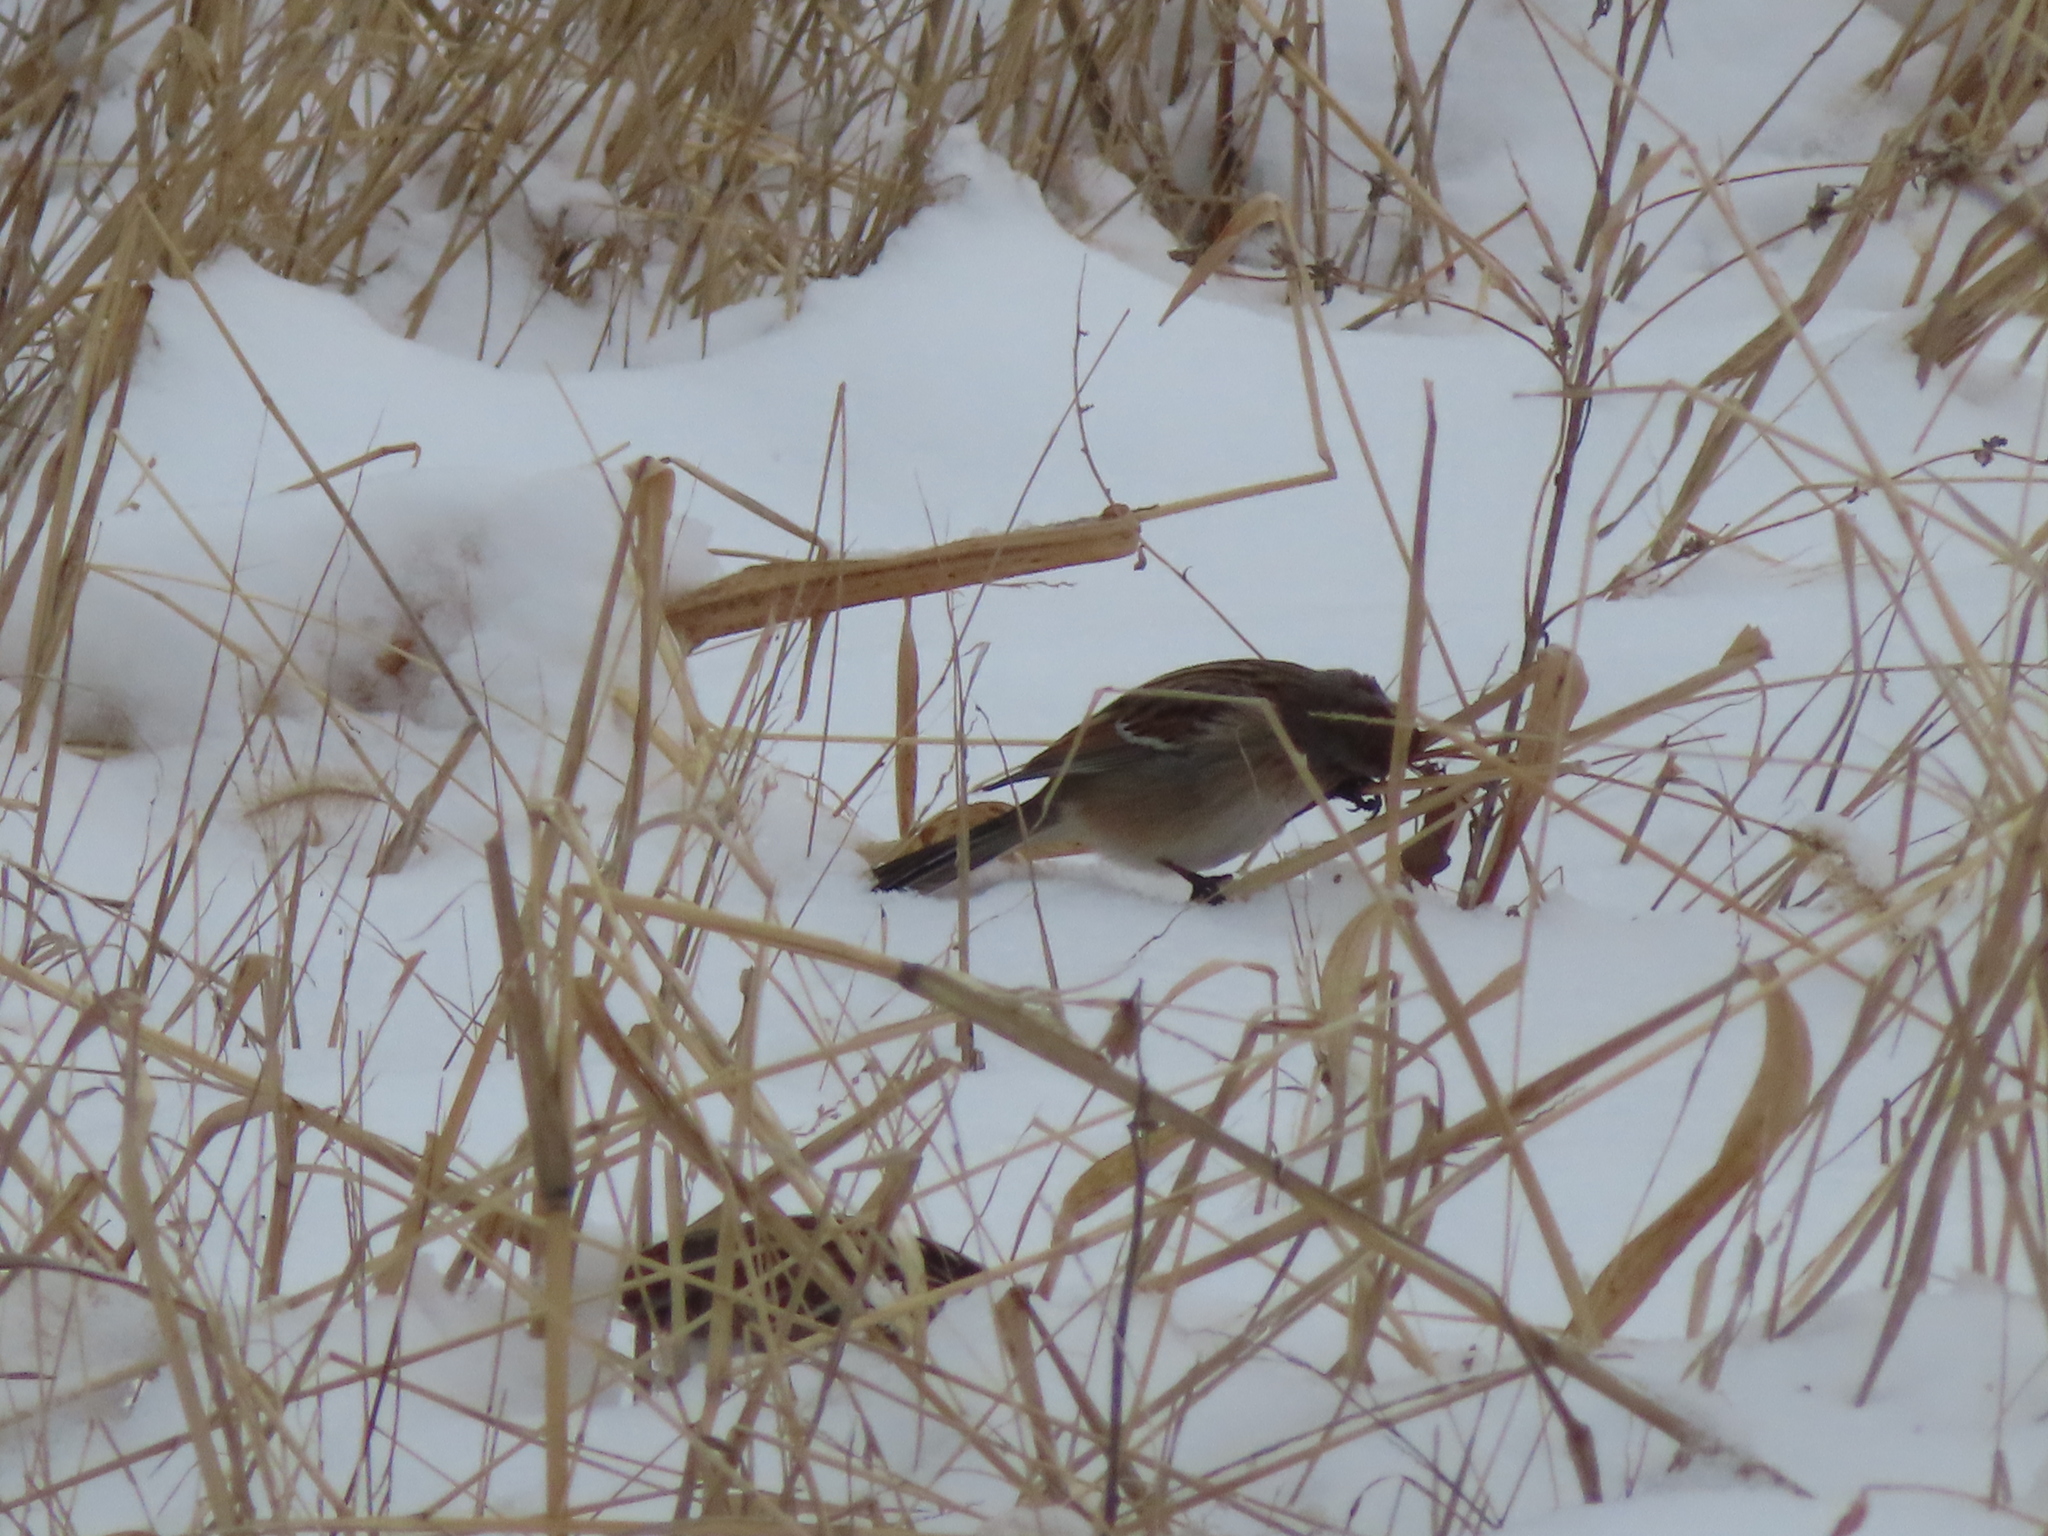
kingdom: Animalia
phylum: Chordata
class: Aves
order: Passeriformes
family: Passerellidae
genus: Spizelloides
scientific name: Spizelloides arborea
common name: American tree sparrow
